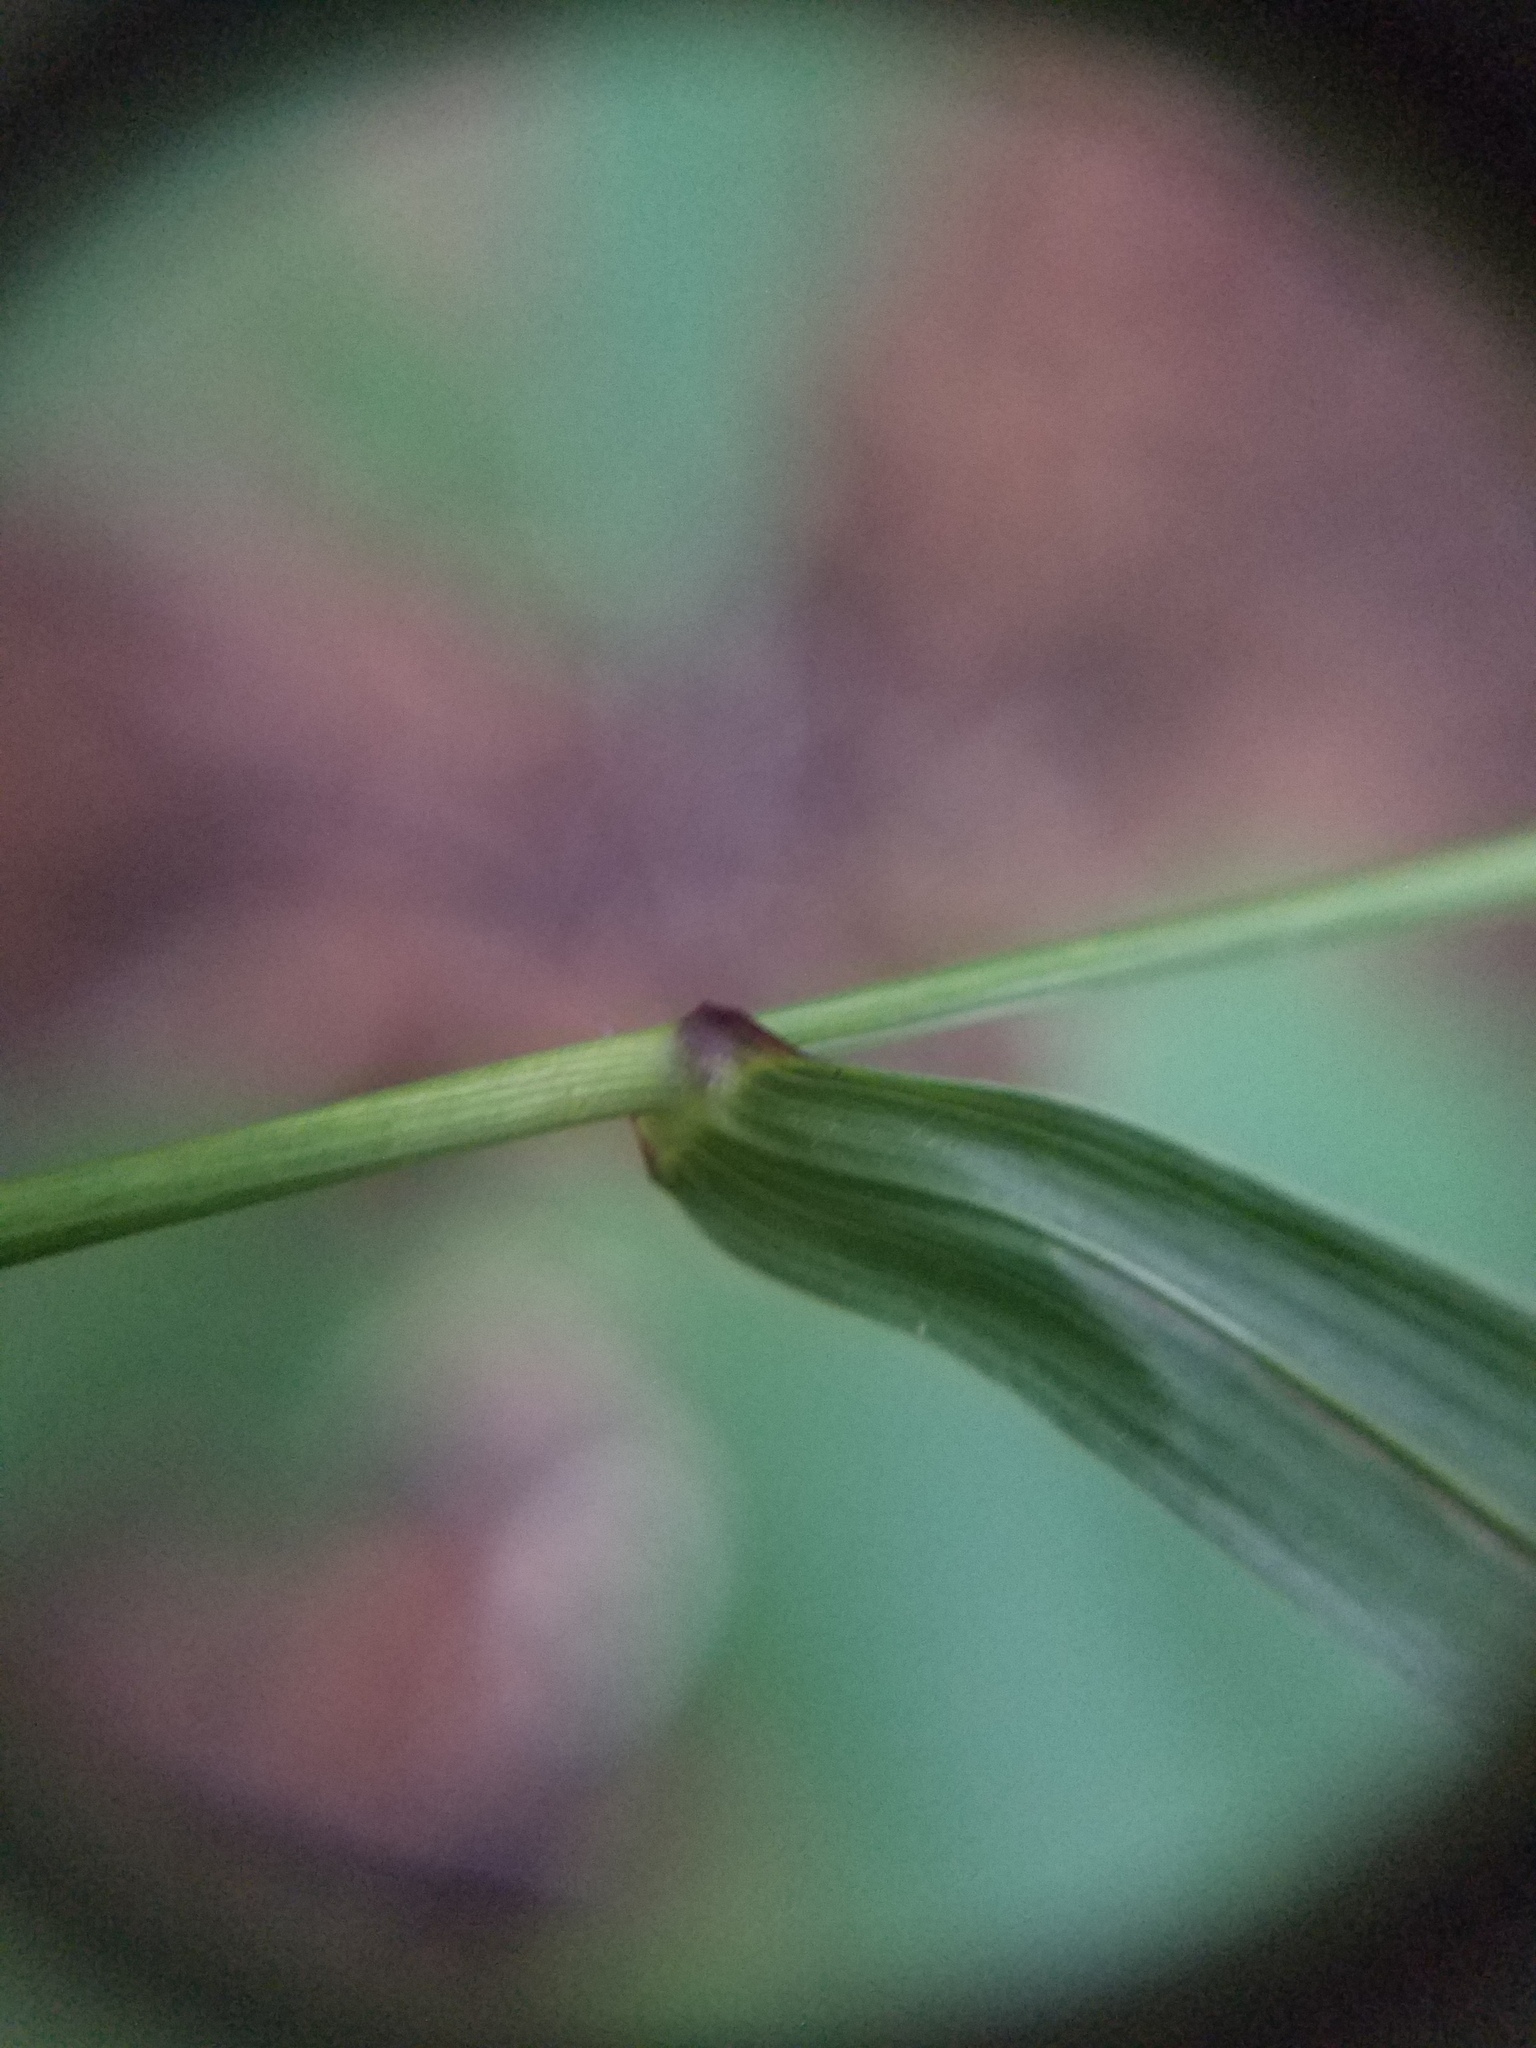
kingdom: Plantae
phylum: Tracheophyta
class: Liliopsida
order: Poales
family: Poaceae
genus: Elymus
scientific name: Elymus hystrix
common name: Bottlebrush grass
